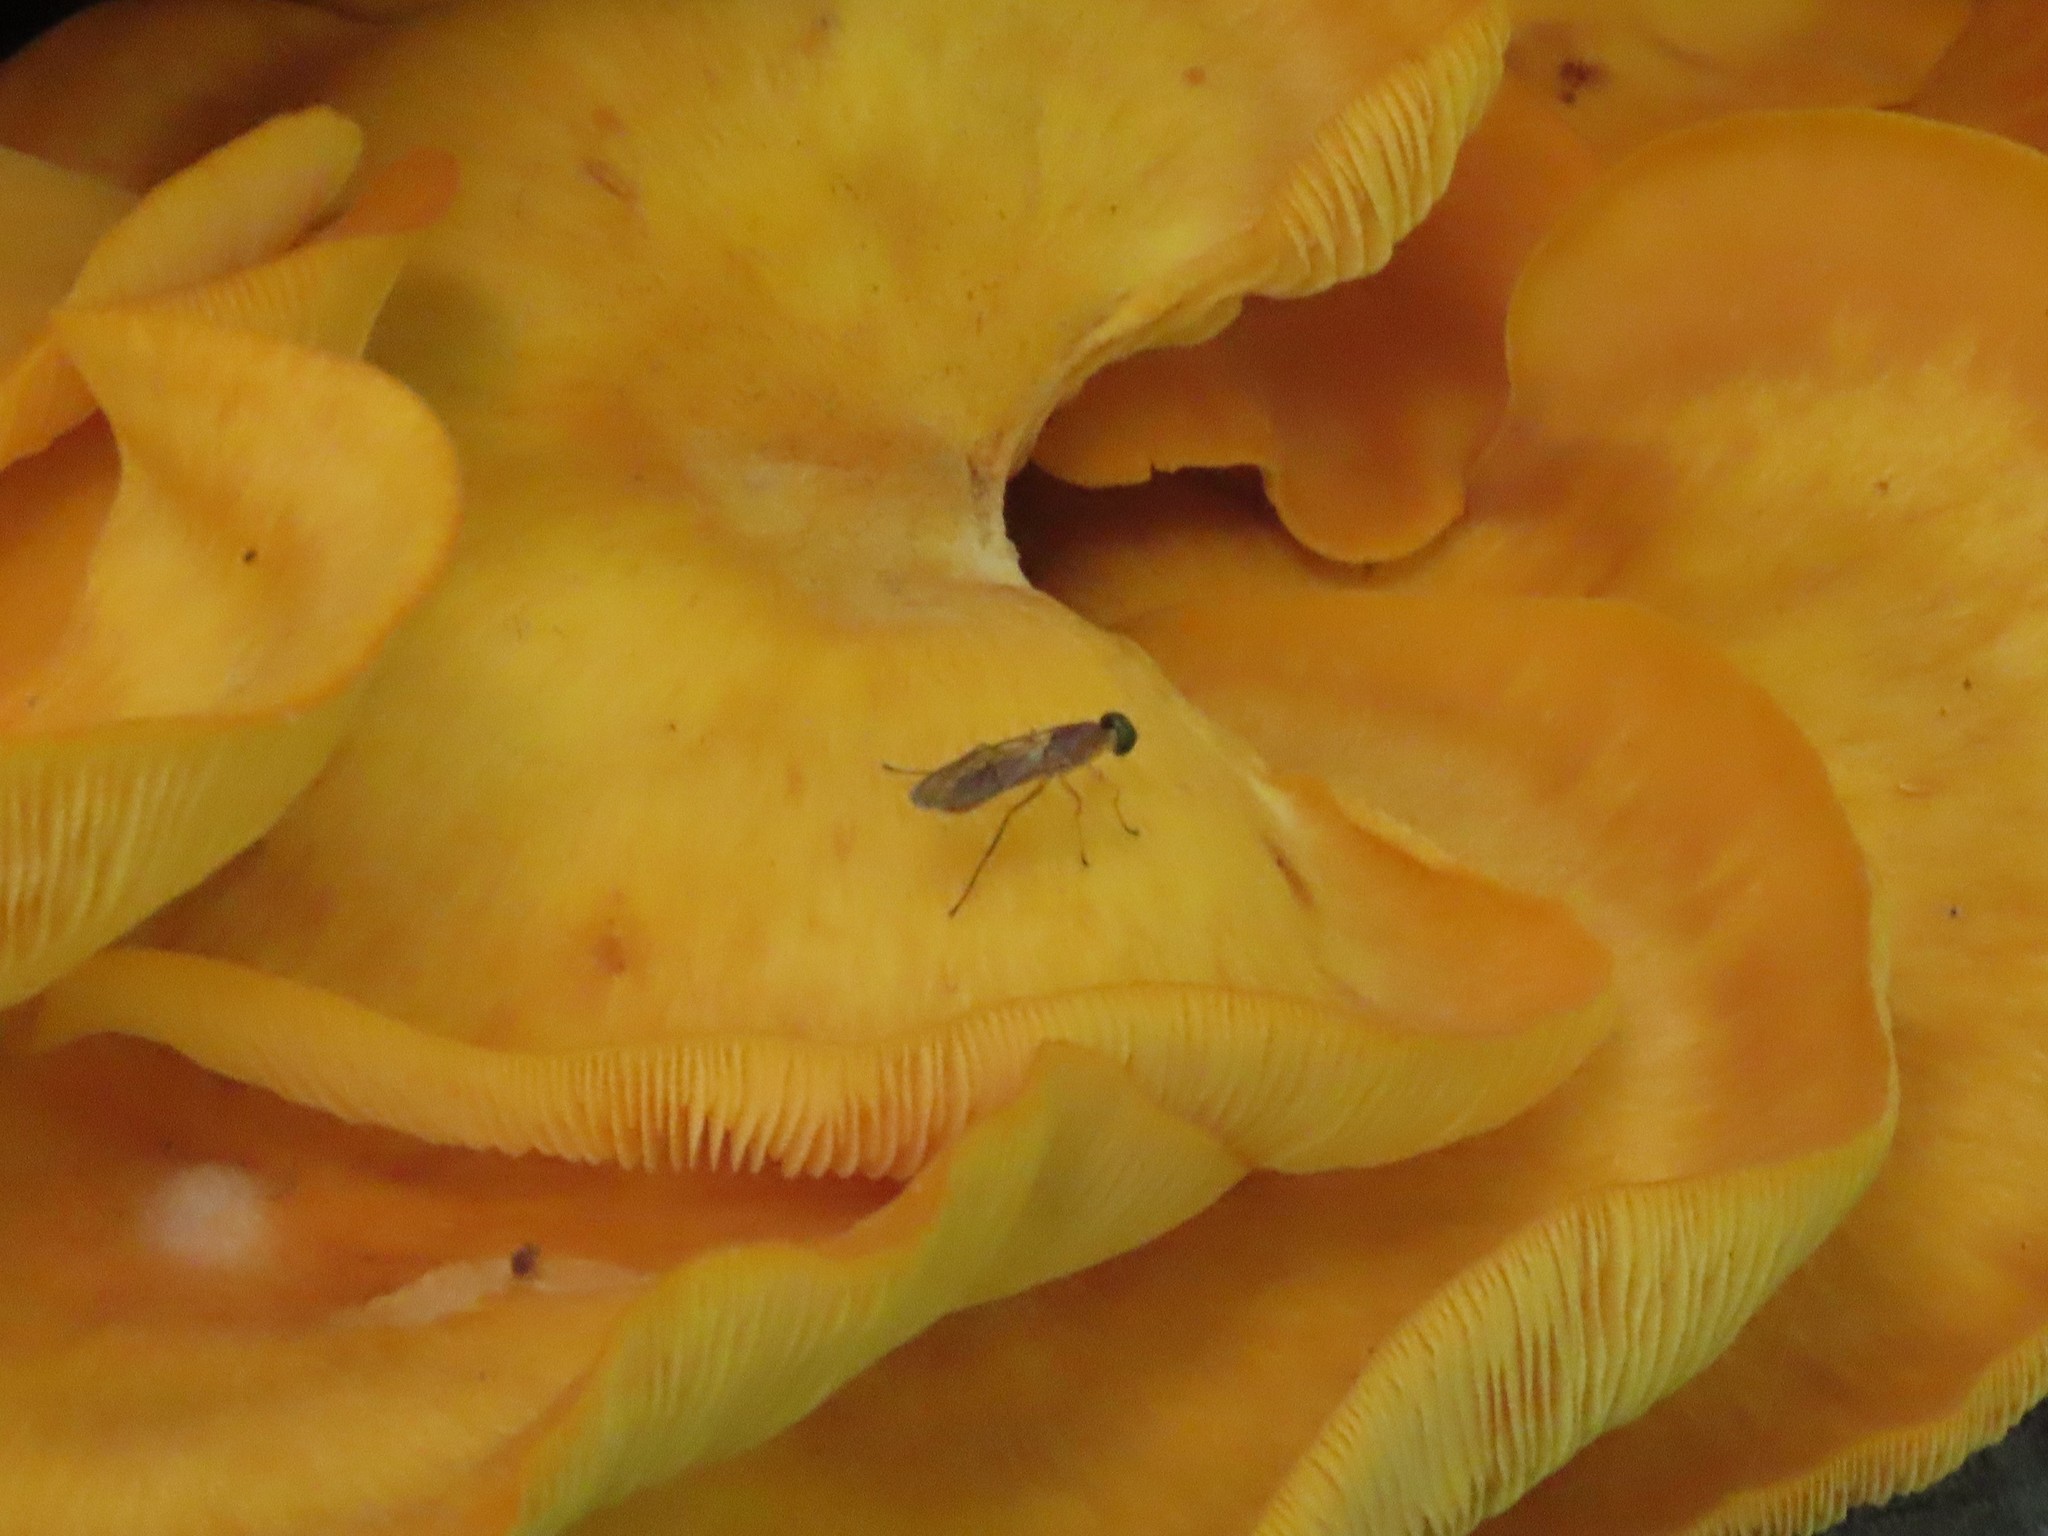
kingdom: Animalia
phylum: Arthropoda
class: Insecta
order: Diptera
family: Stratiomyidae
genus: Ptecticus
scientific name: Ptecticus trivittatus
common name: Compost fly
